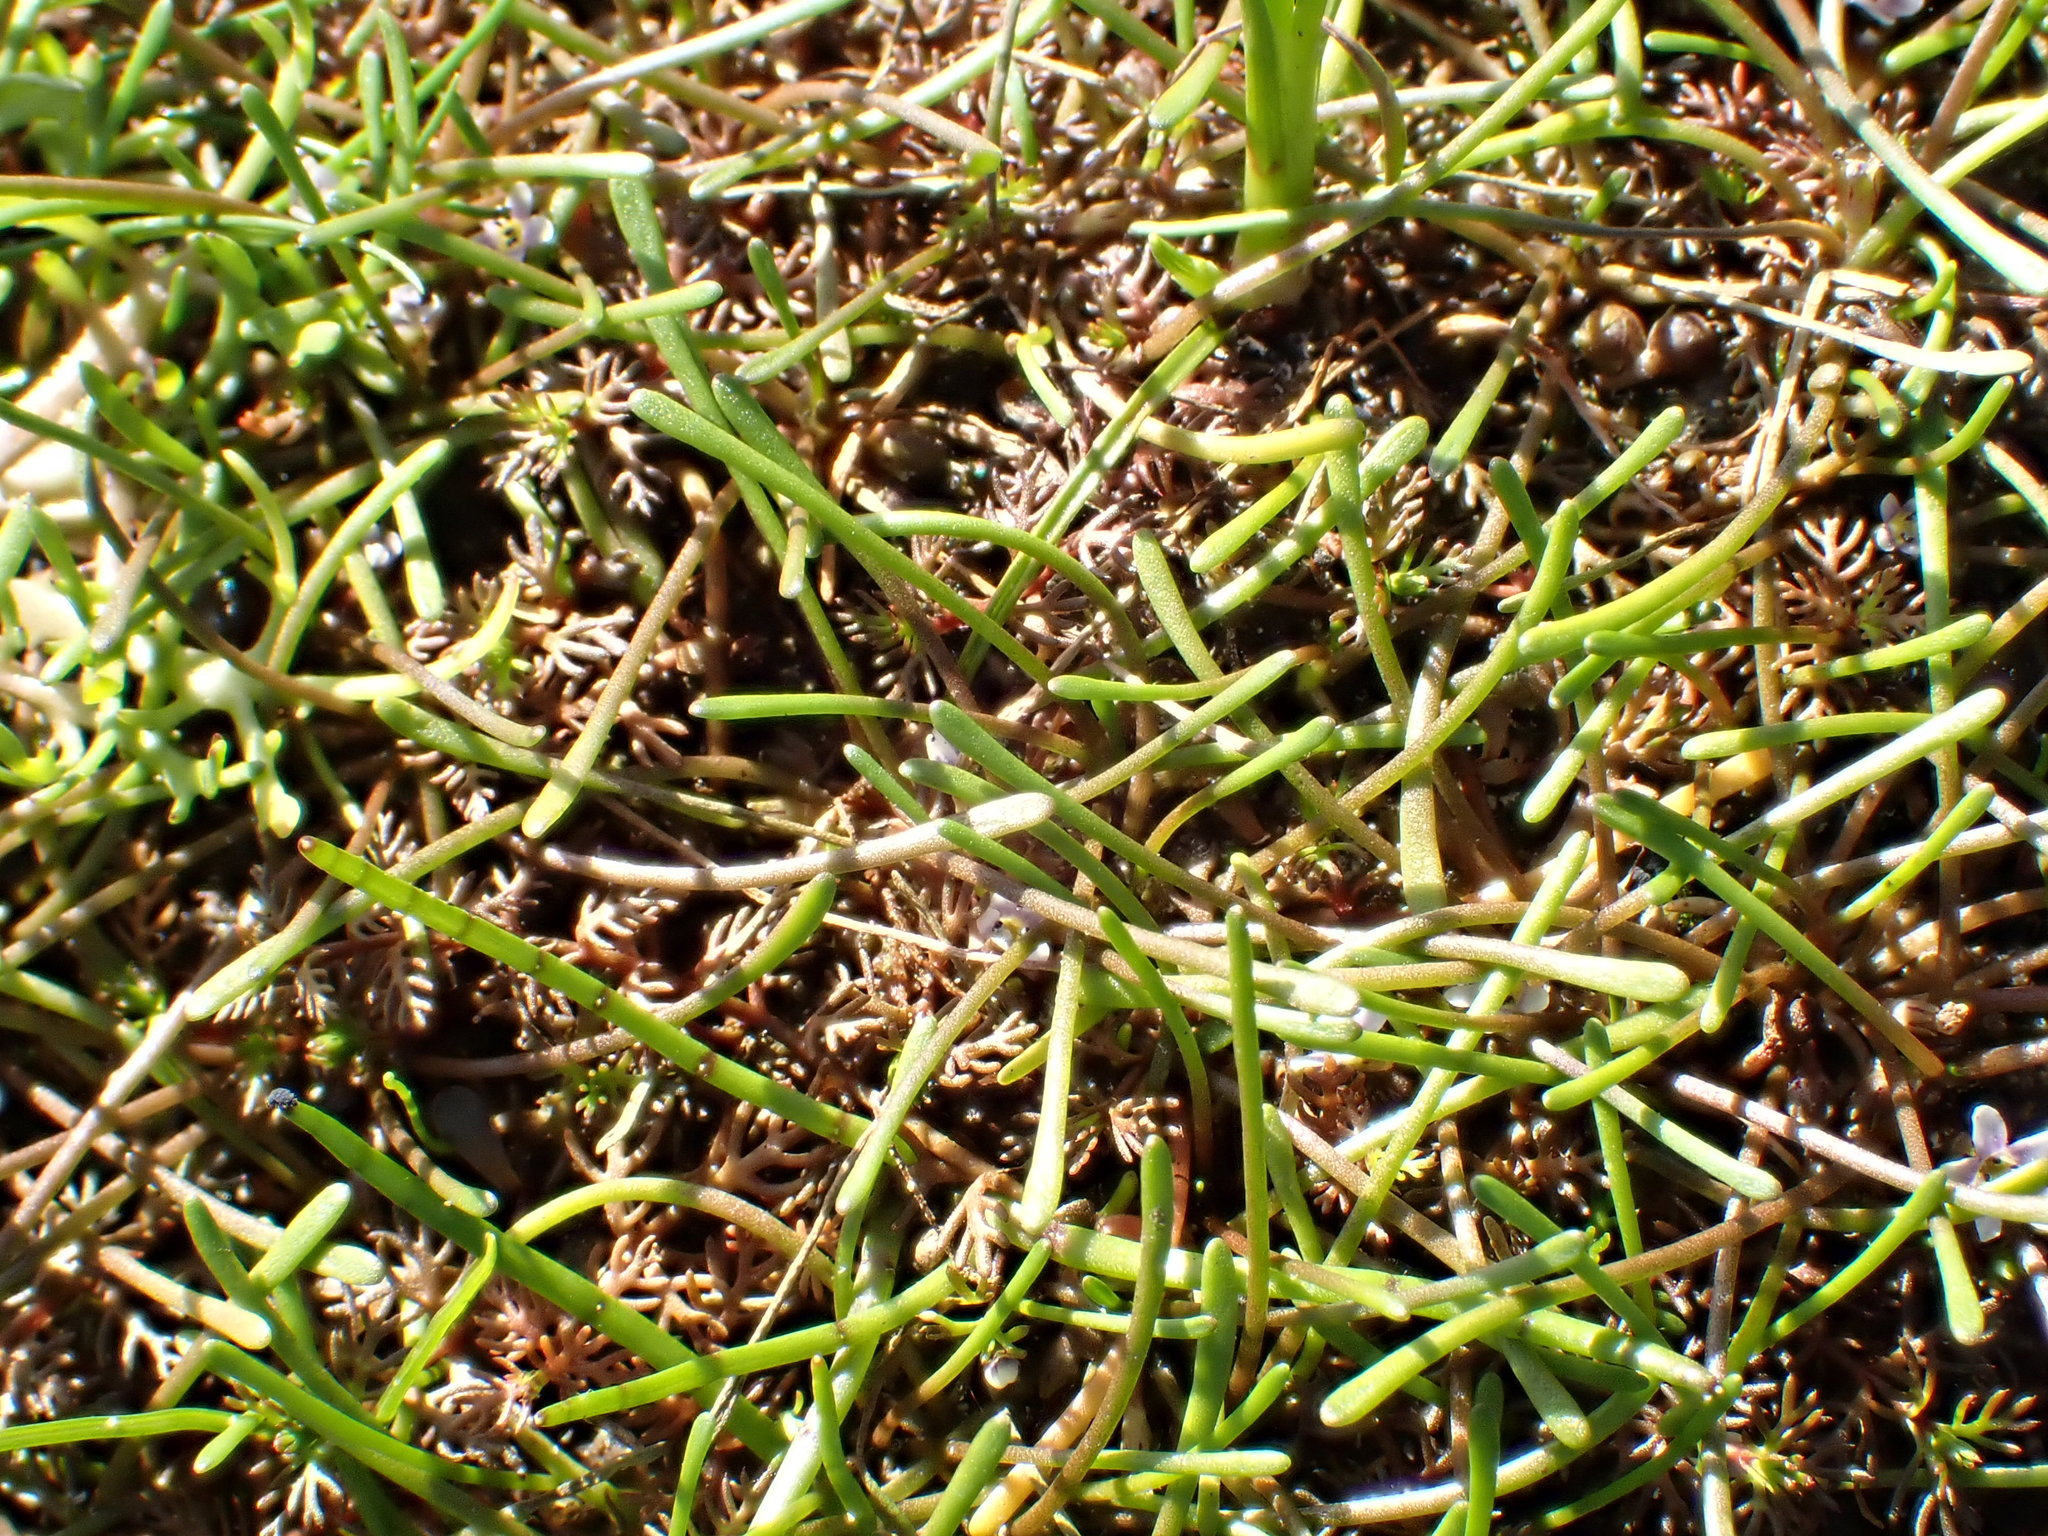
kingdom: Plantae
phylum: Tracheophyta
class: Magnoliopsida
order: Lamiales
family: Scrophulariaceae
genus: Limosella
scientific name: Limosella australis
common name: Welsh mudwort
